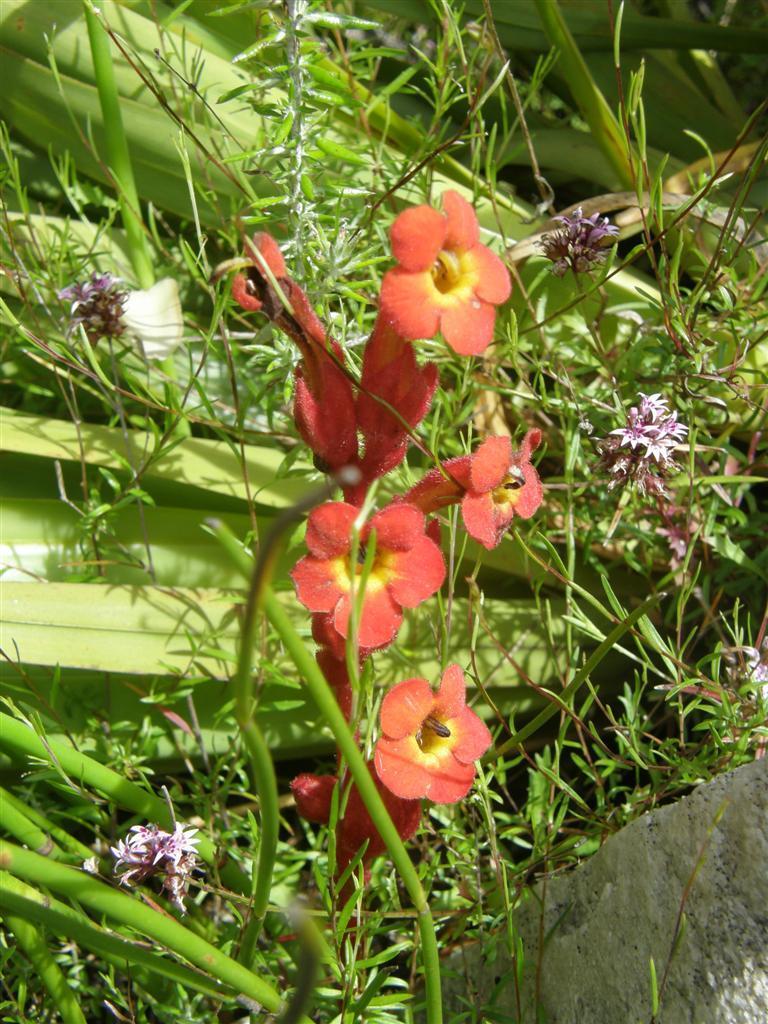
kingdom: Plantae
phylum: Tracheophyta
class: Magnoliopsida
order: Lamiales
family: Orobanchaceae
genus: Harveya
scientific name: Harveya bolusii
